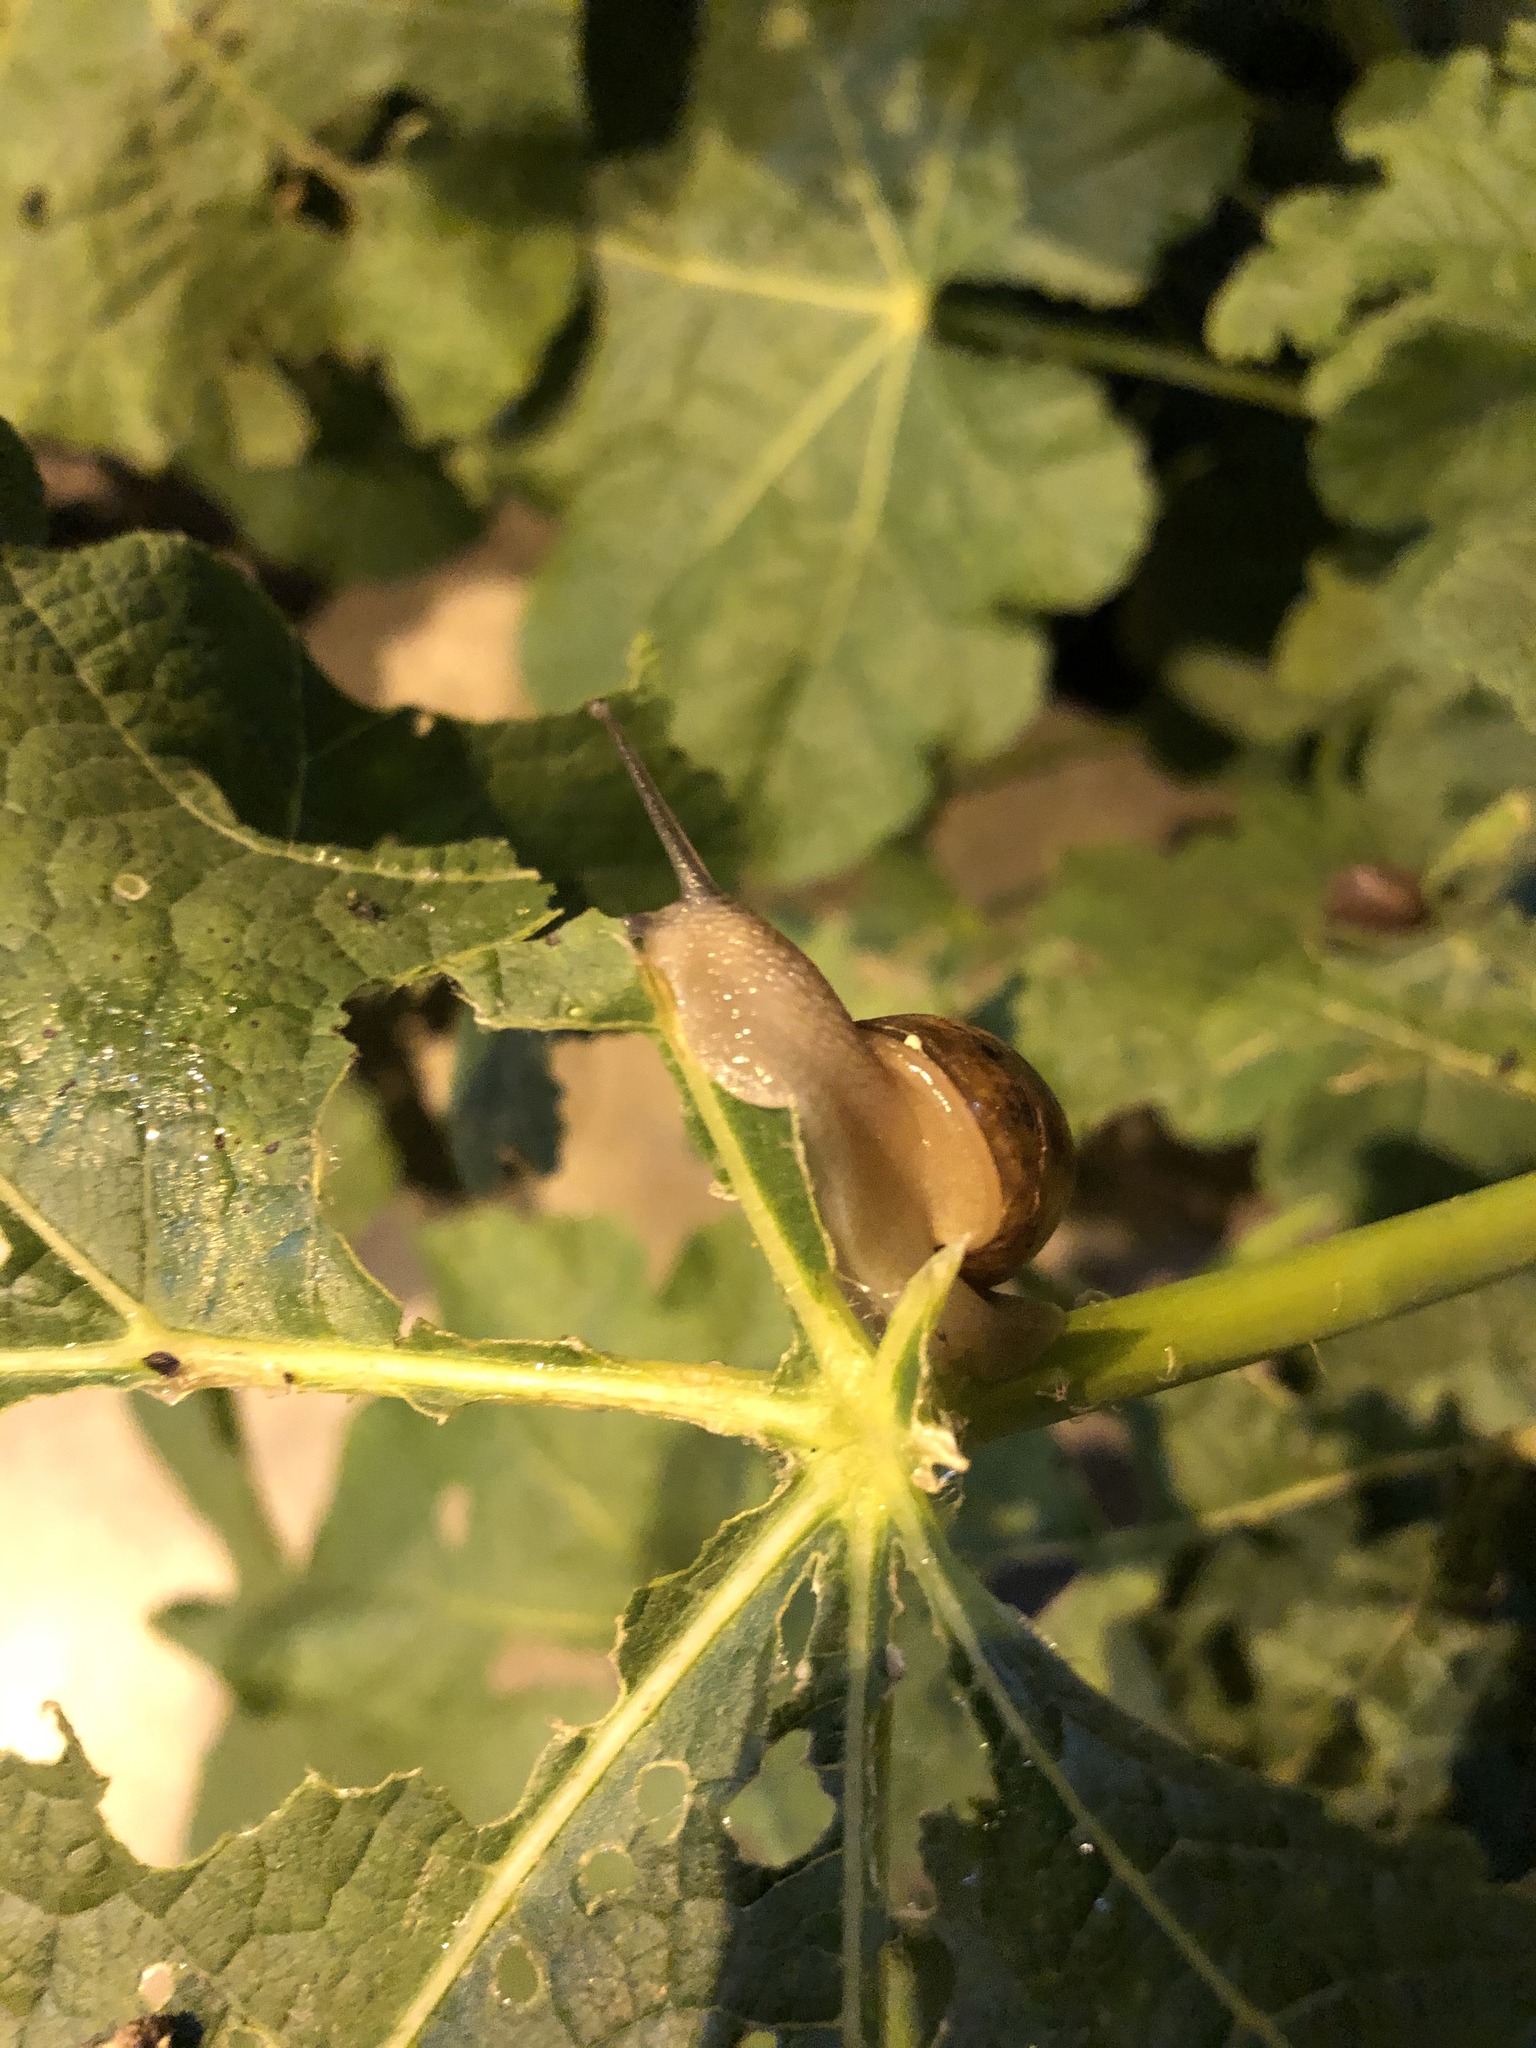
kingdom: Animalia
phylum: Mollusca
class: Gastropoda
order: Stylommatophora
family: Helicidae
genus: Cornu
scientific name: Cornu aspersum
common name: Brown garden snail
